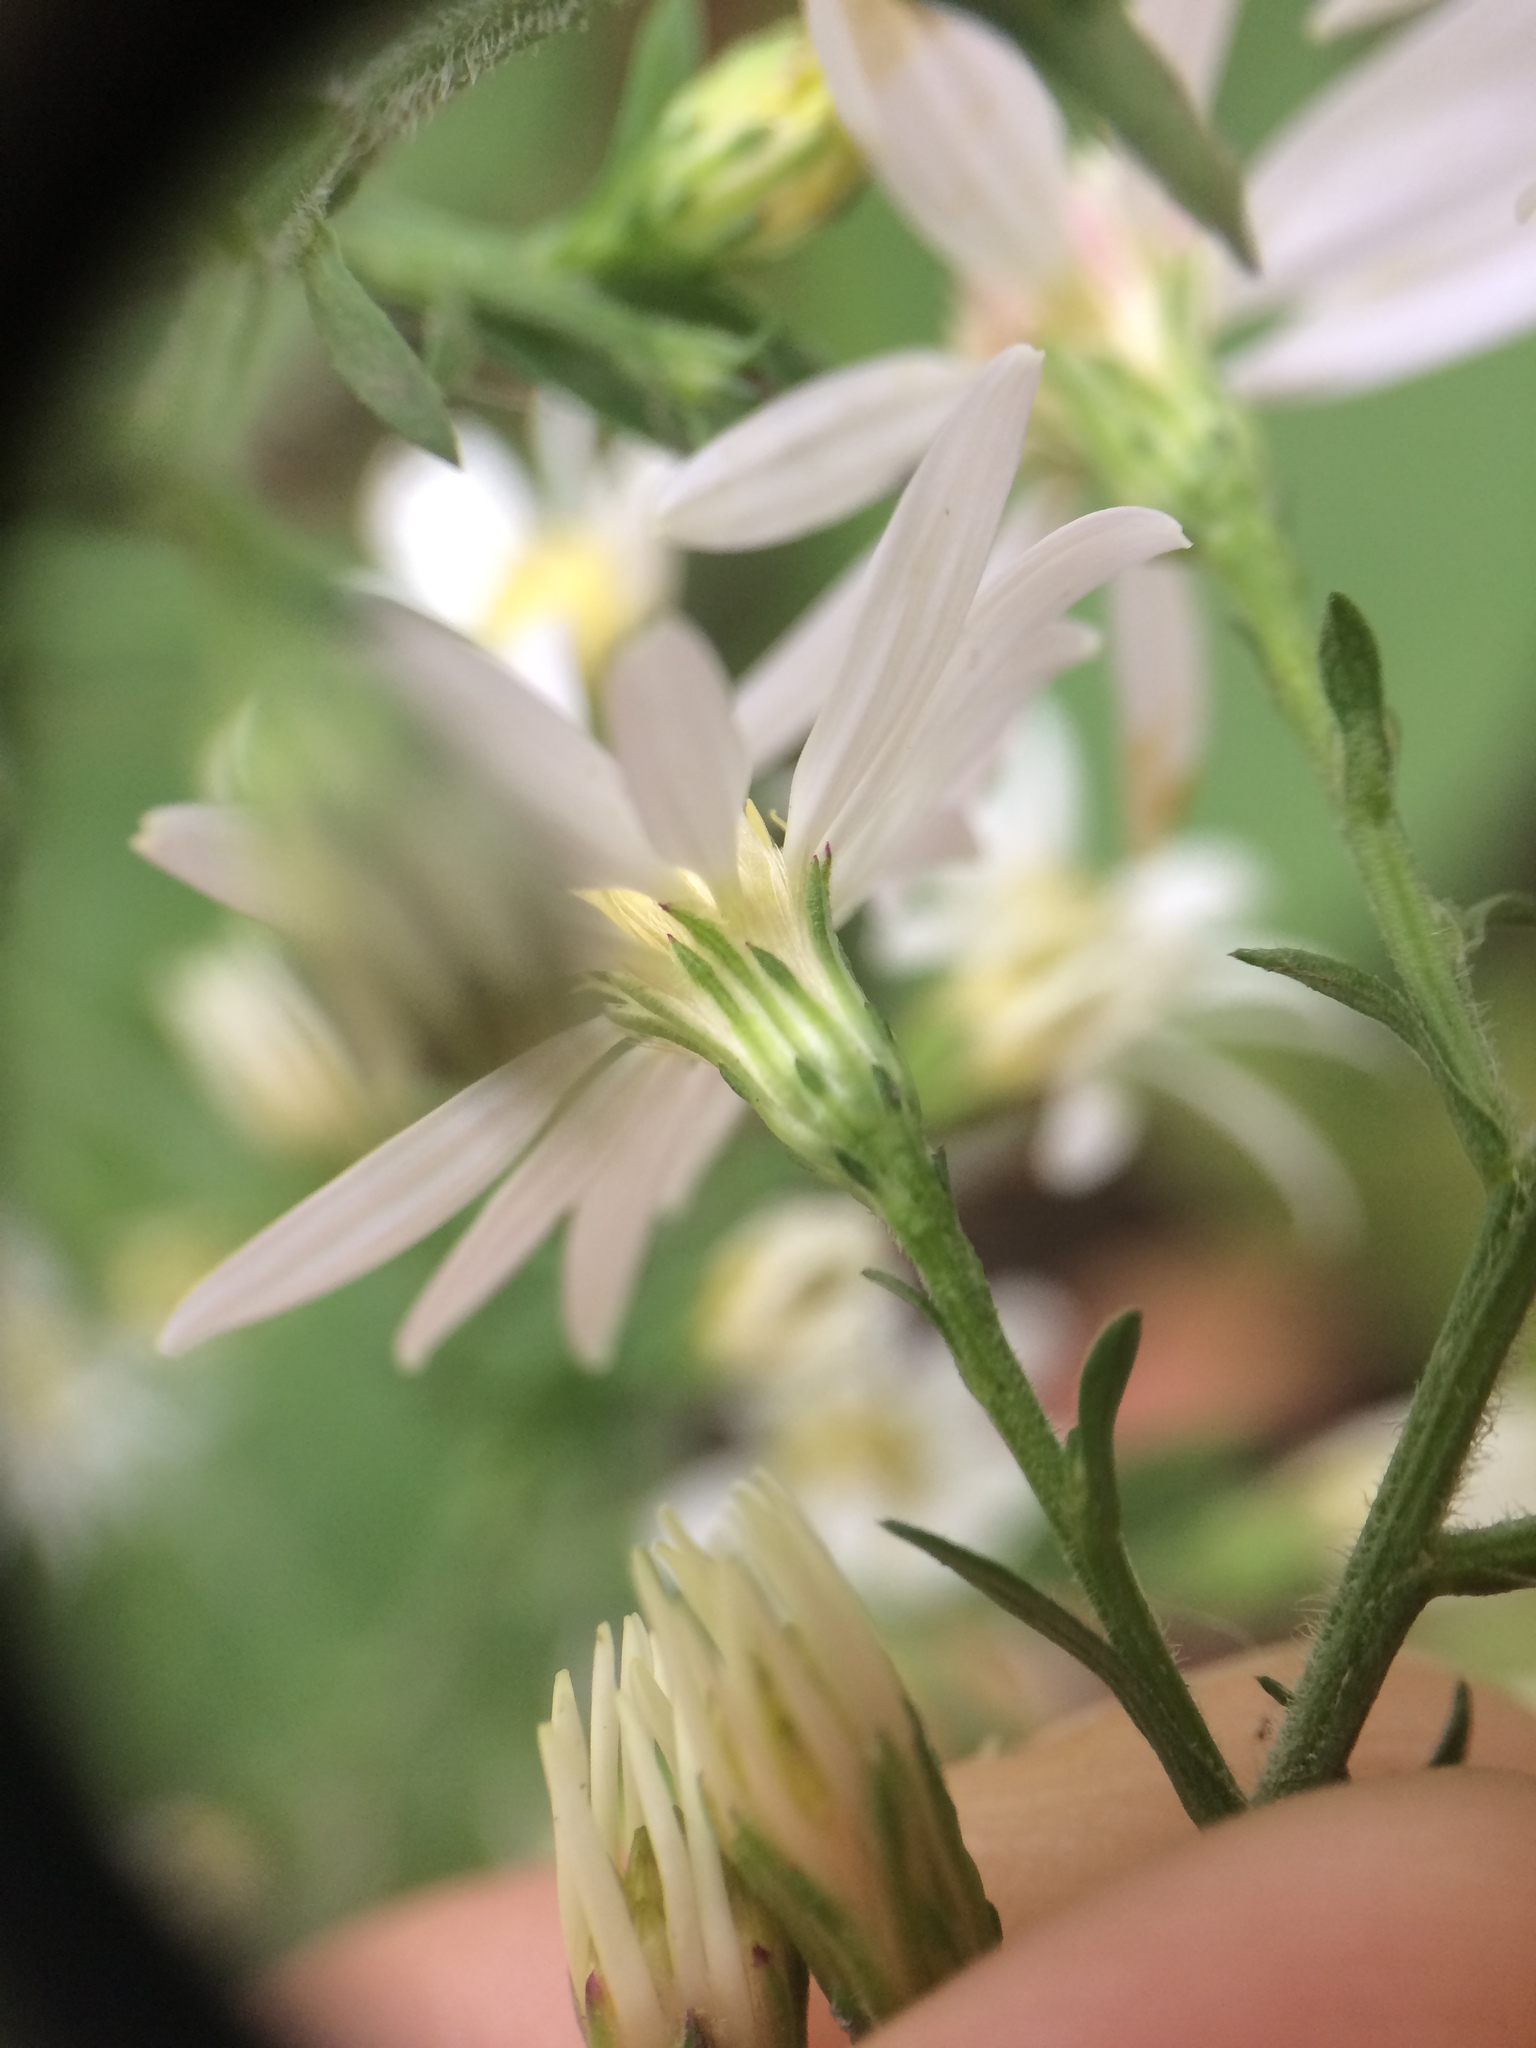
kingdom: Plantae
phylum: Tracheophyta
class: Magnoliopsida
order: Asterales
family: Asteraceae
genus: Symphyotrichum
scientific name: Symphyotrichum cordifolium
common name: Beeweed
